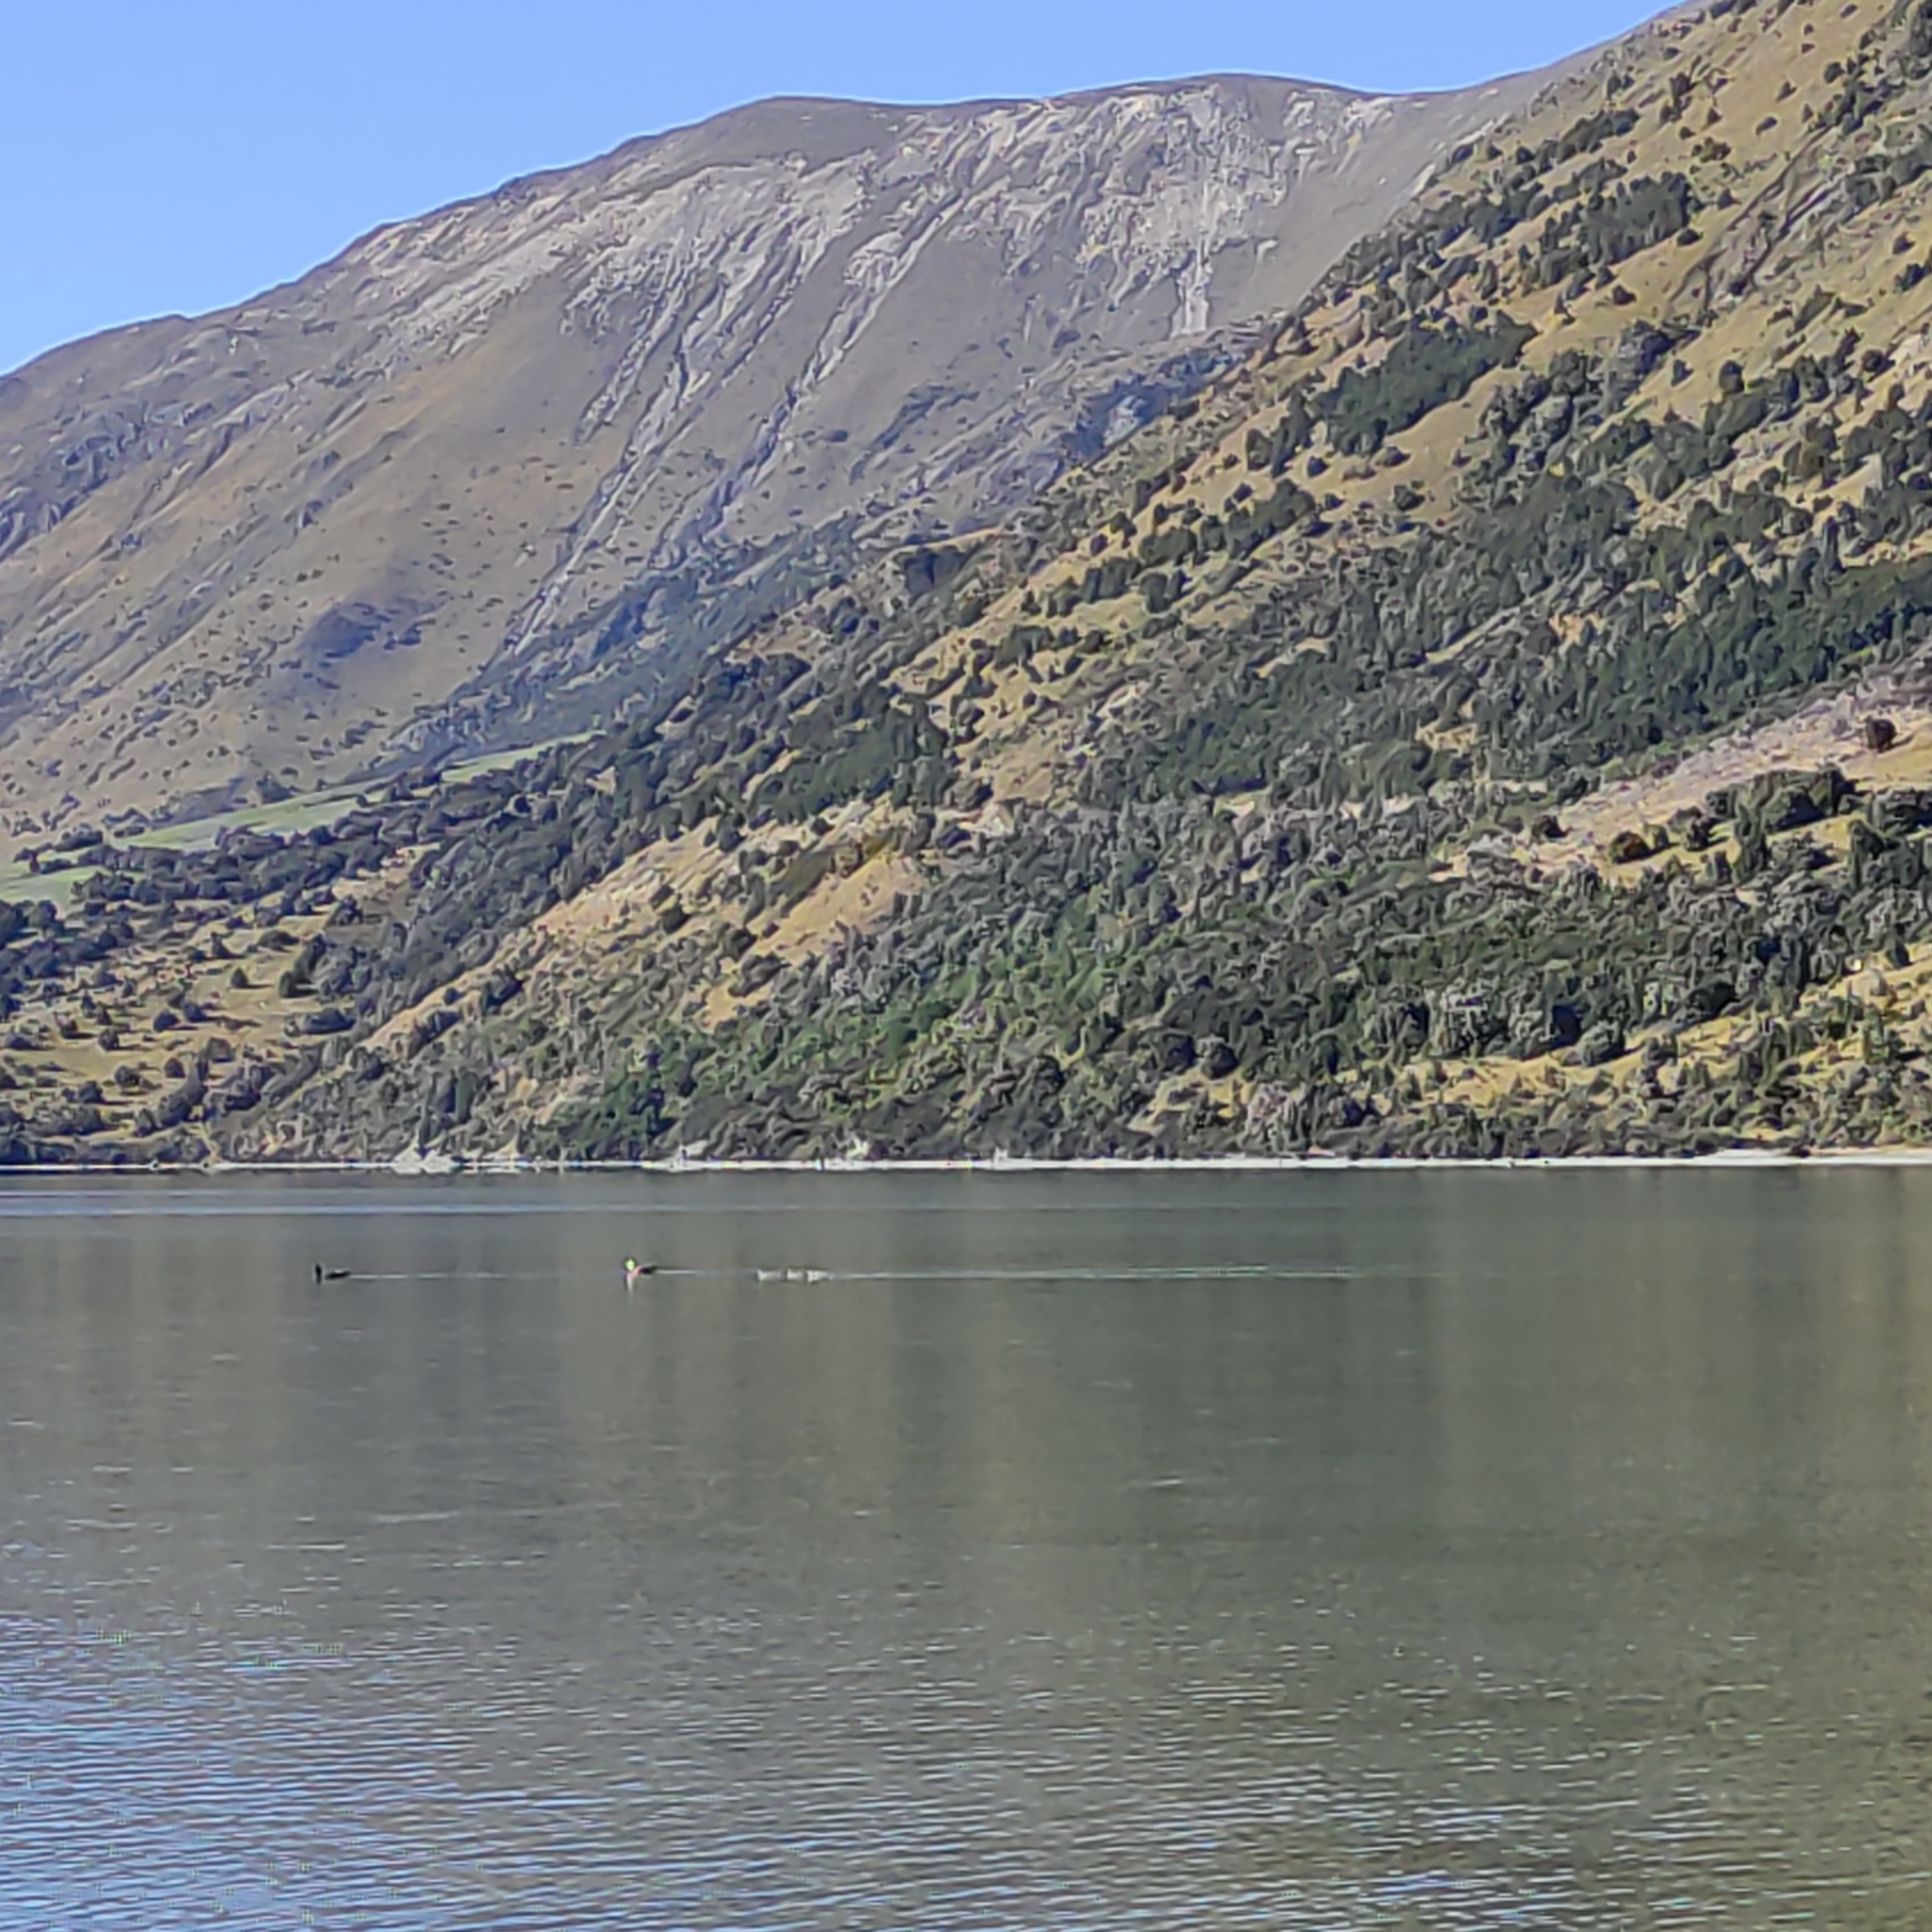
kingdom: Animalia
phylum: Chordata
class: Aves
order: Anseriformes
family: Anatidae
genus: Tadorna
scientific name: Tadorna variegata
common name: Paradise shelduck
